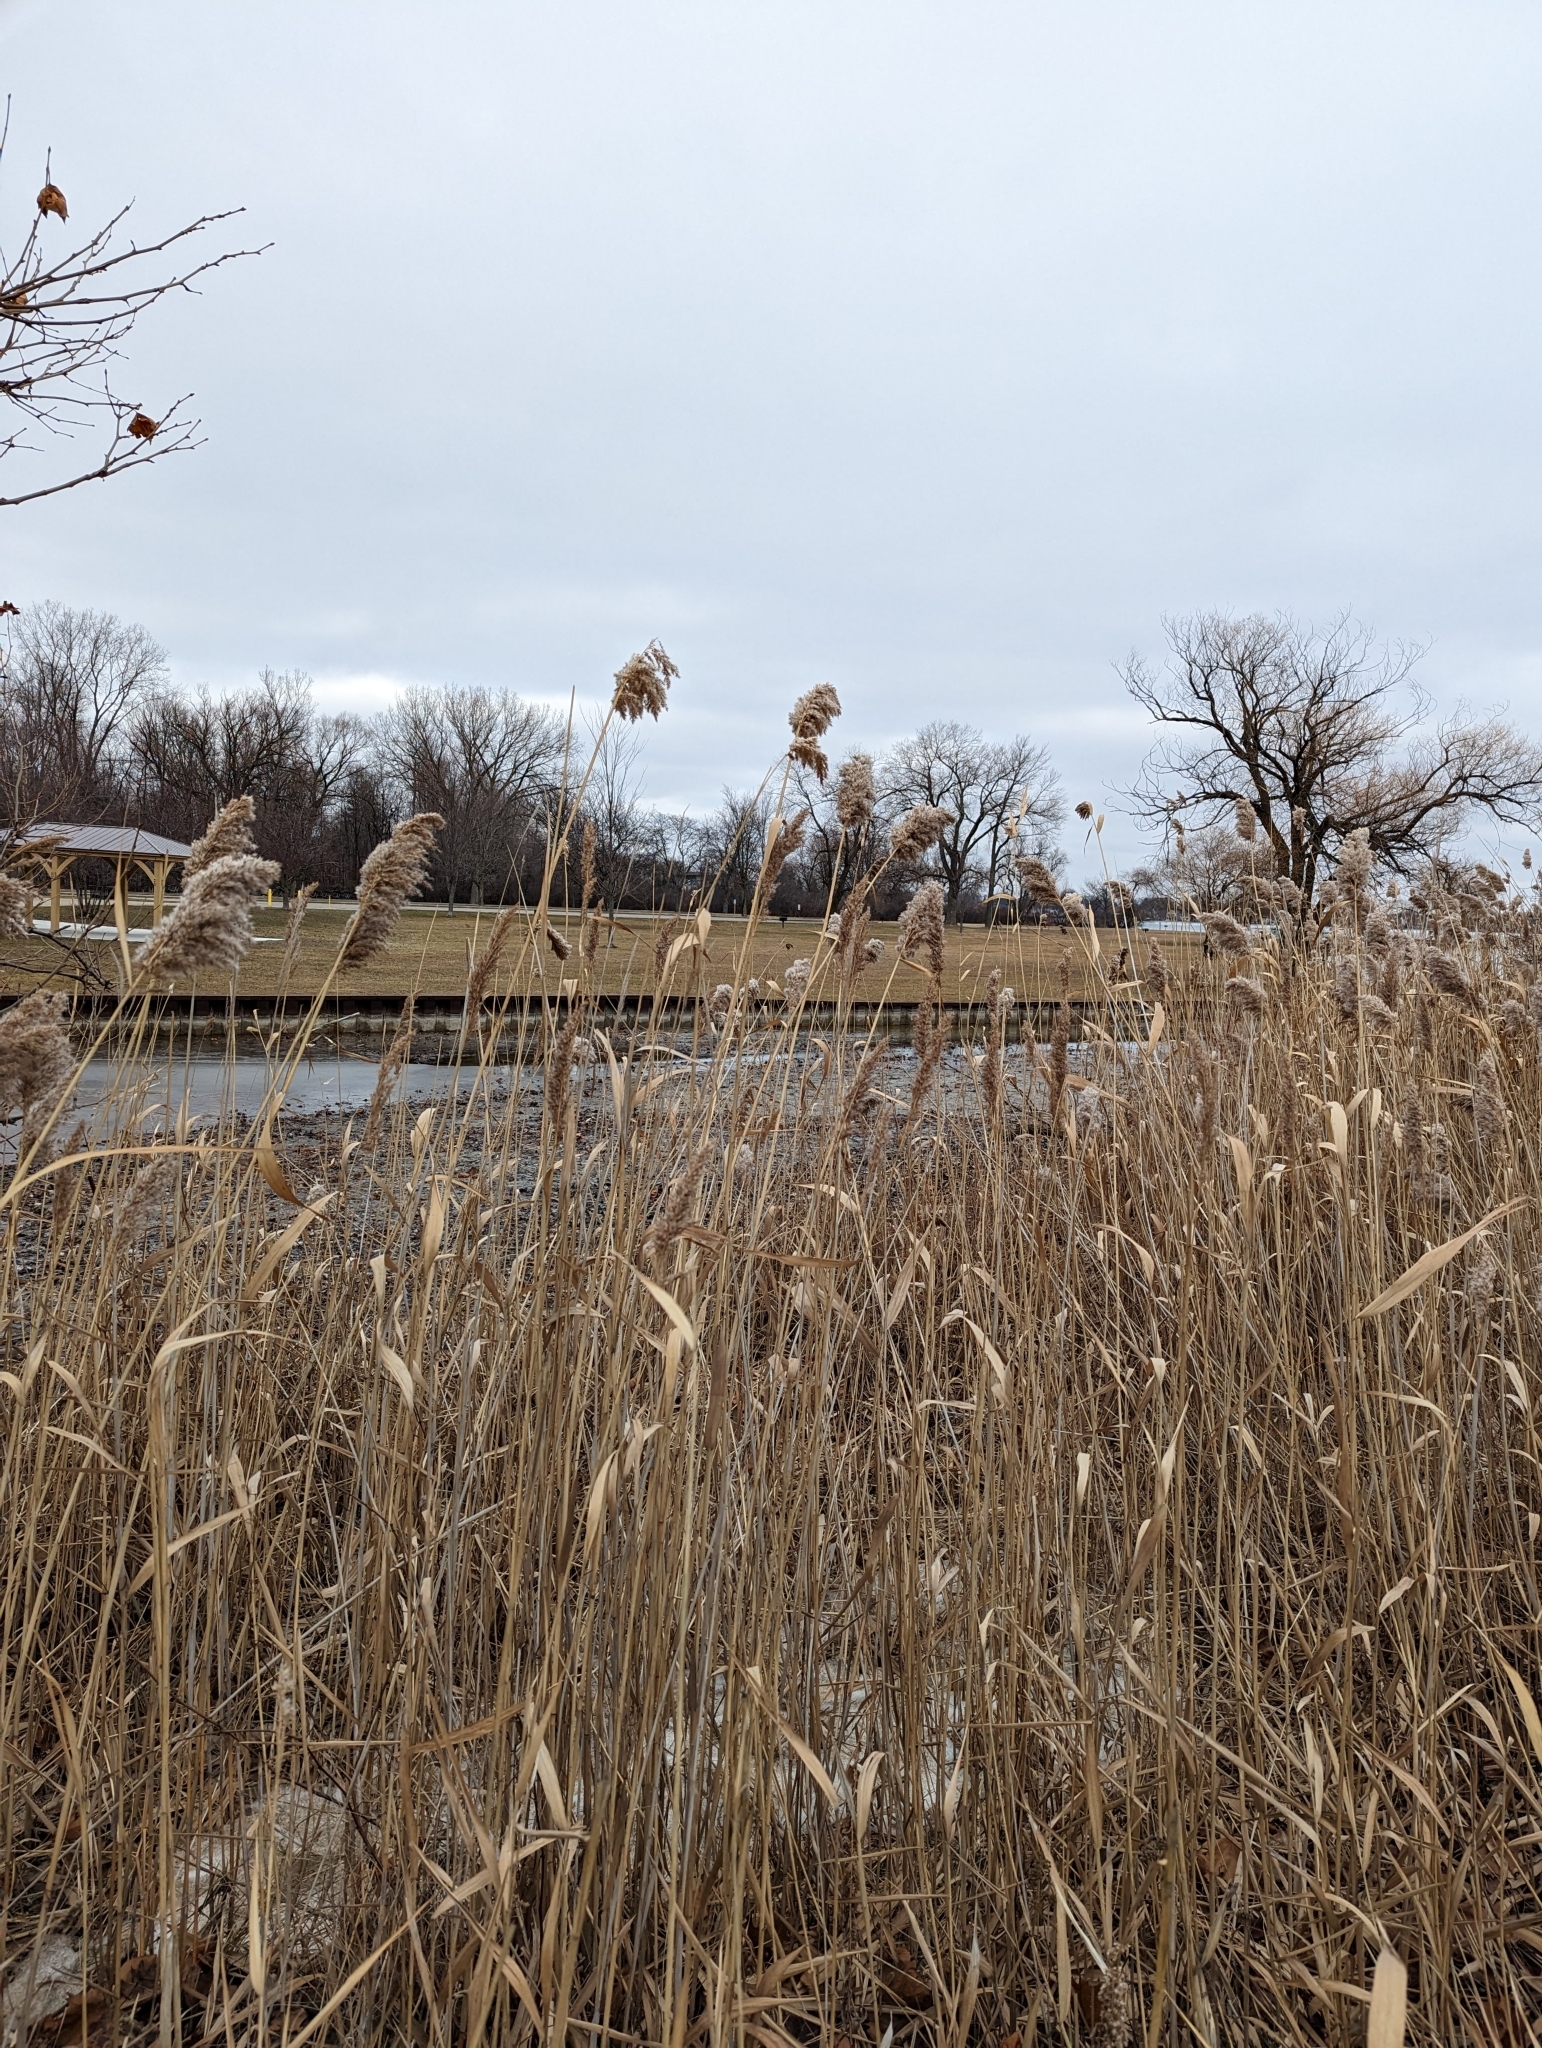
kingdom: Plantae
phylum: Tracheophyta
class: Liliopsida
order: Poales
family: Poaceae
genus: Phragmites
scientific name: Phragmites australis
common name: Common reed
